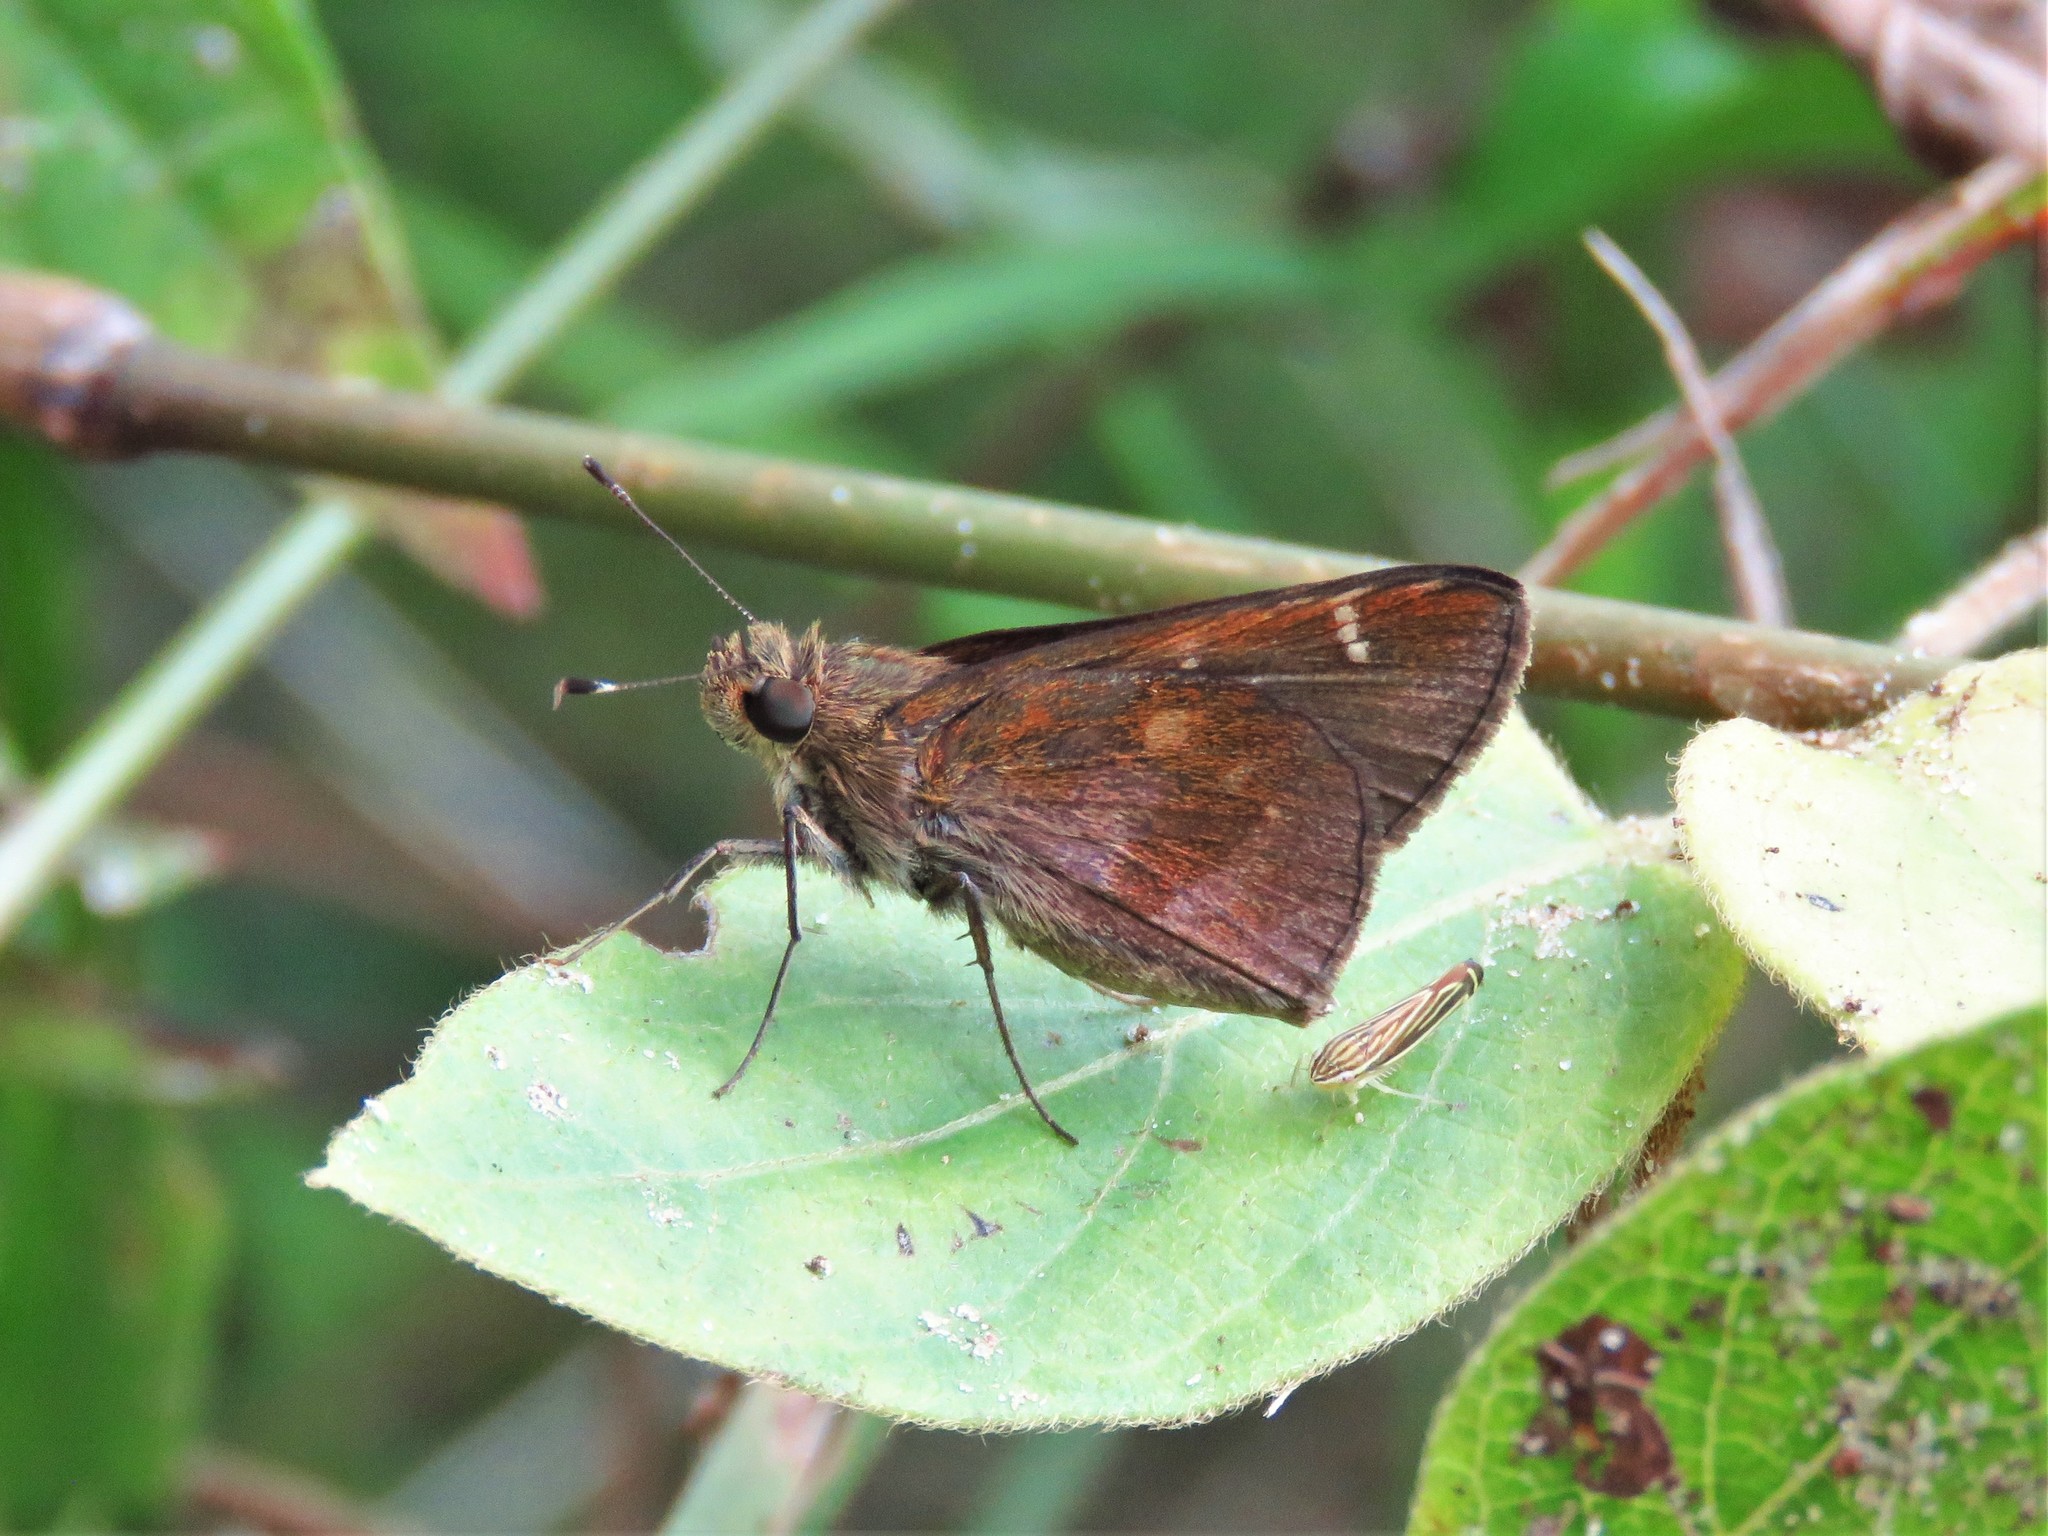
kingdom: Animalia
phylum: Arthropoda
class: Insecta
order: Lepidoptera
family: Hesperiidae
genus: Lerema
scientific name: Lerema accius
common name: Clouded skipper
